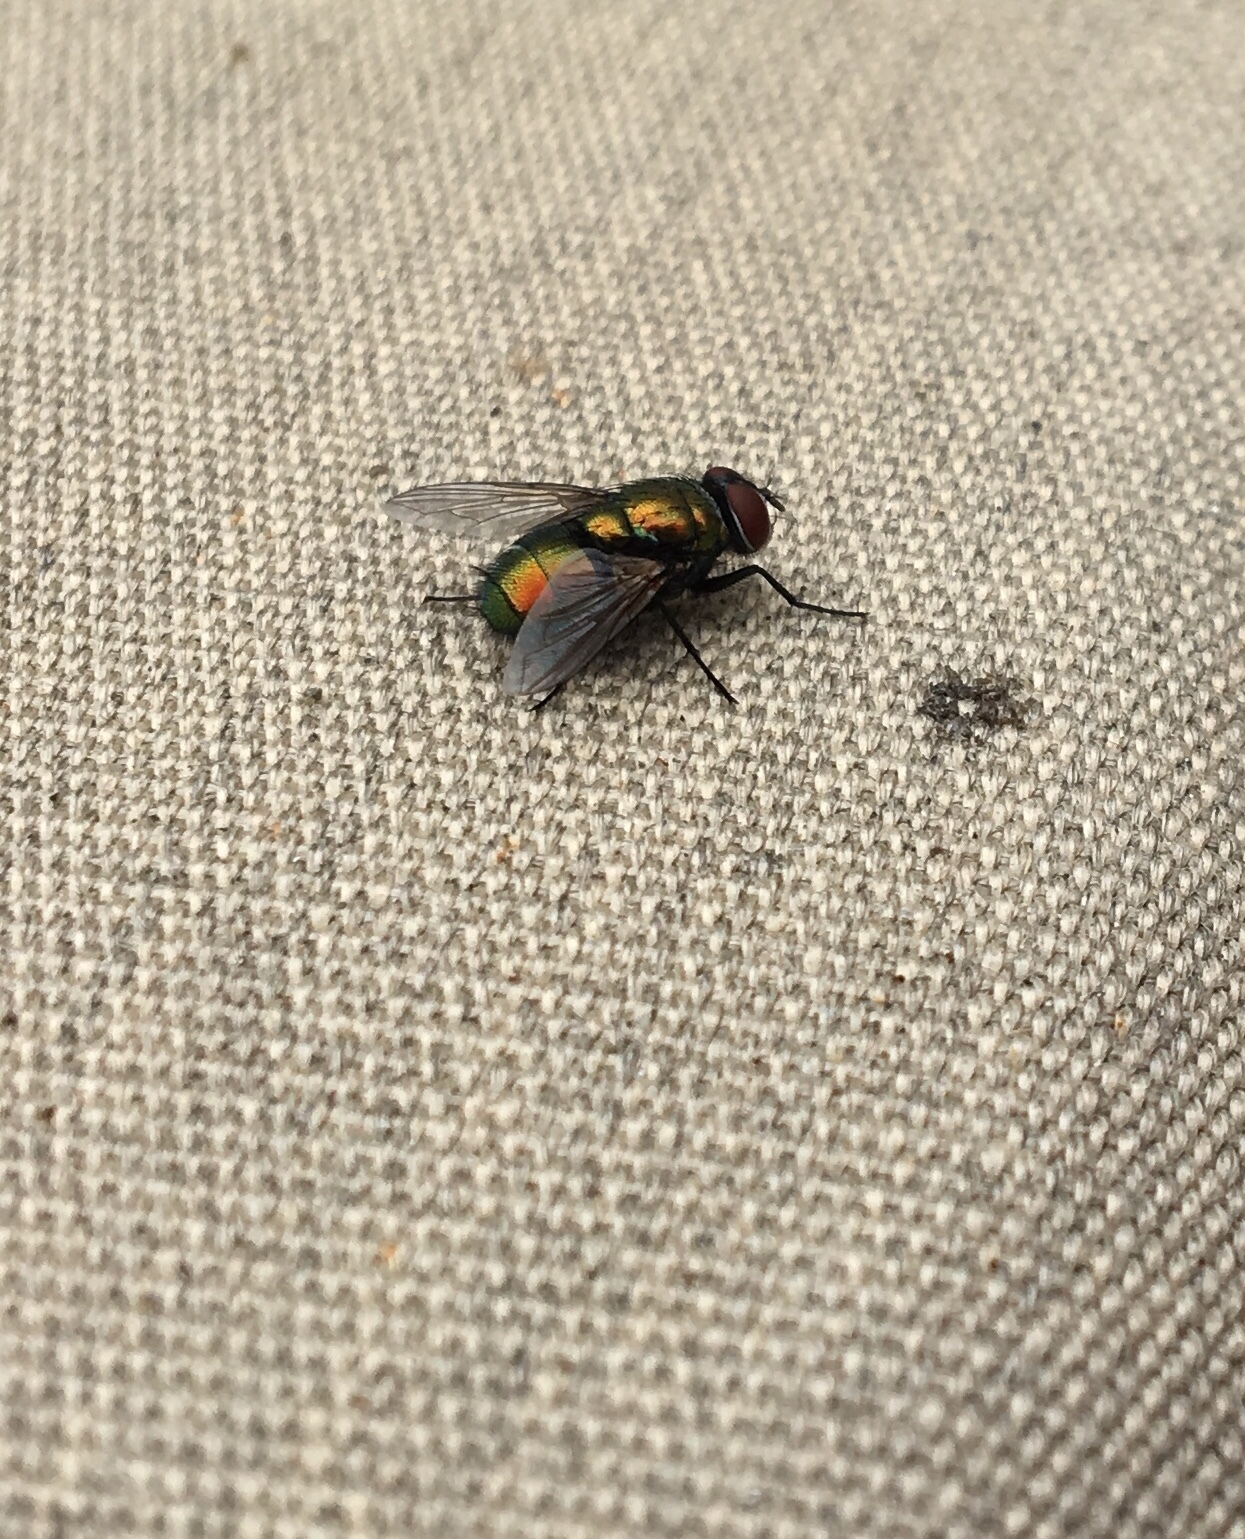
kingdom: Animalia
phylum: Arthropoda
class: Insecta
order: Diptera
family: Calliphoridae
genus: Lucilia
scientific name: Lucilia sericata
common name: Blow fly
